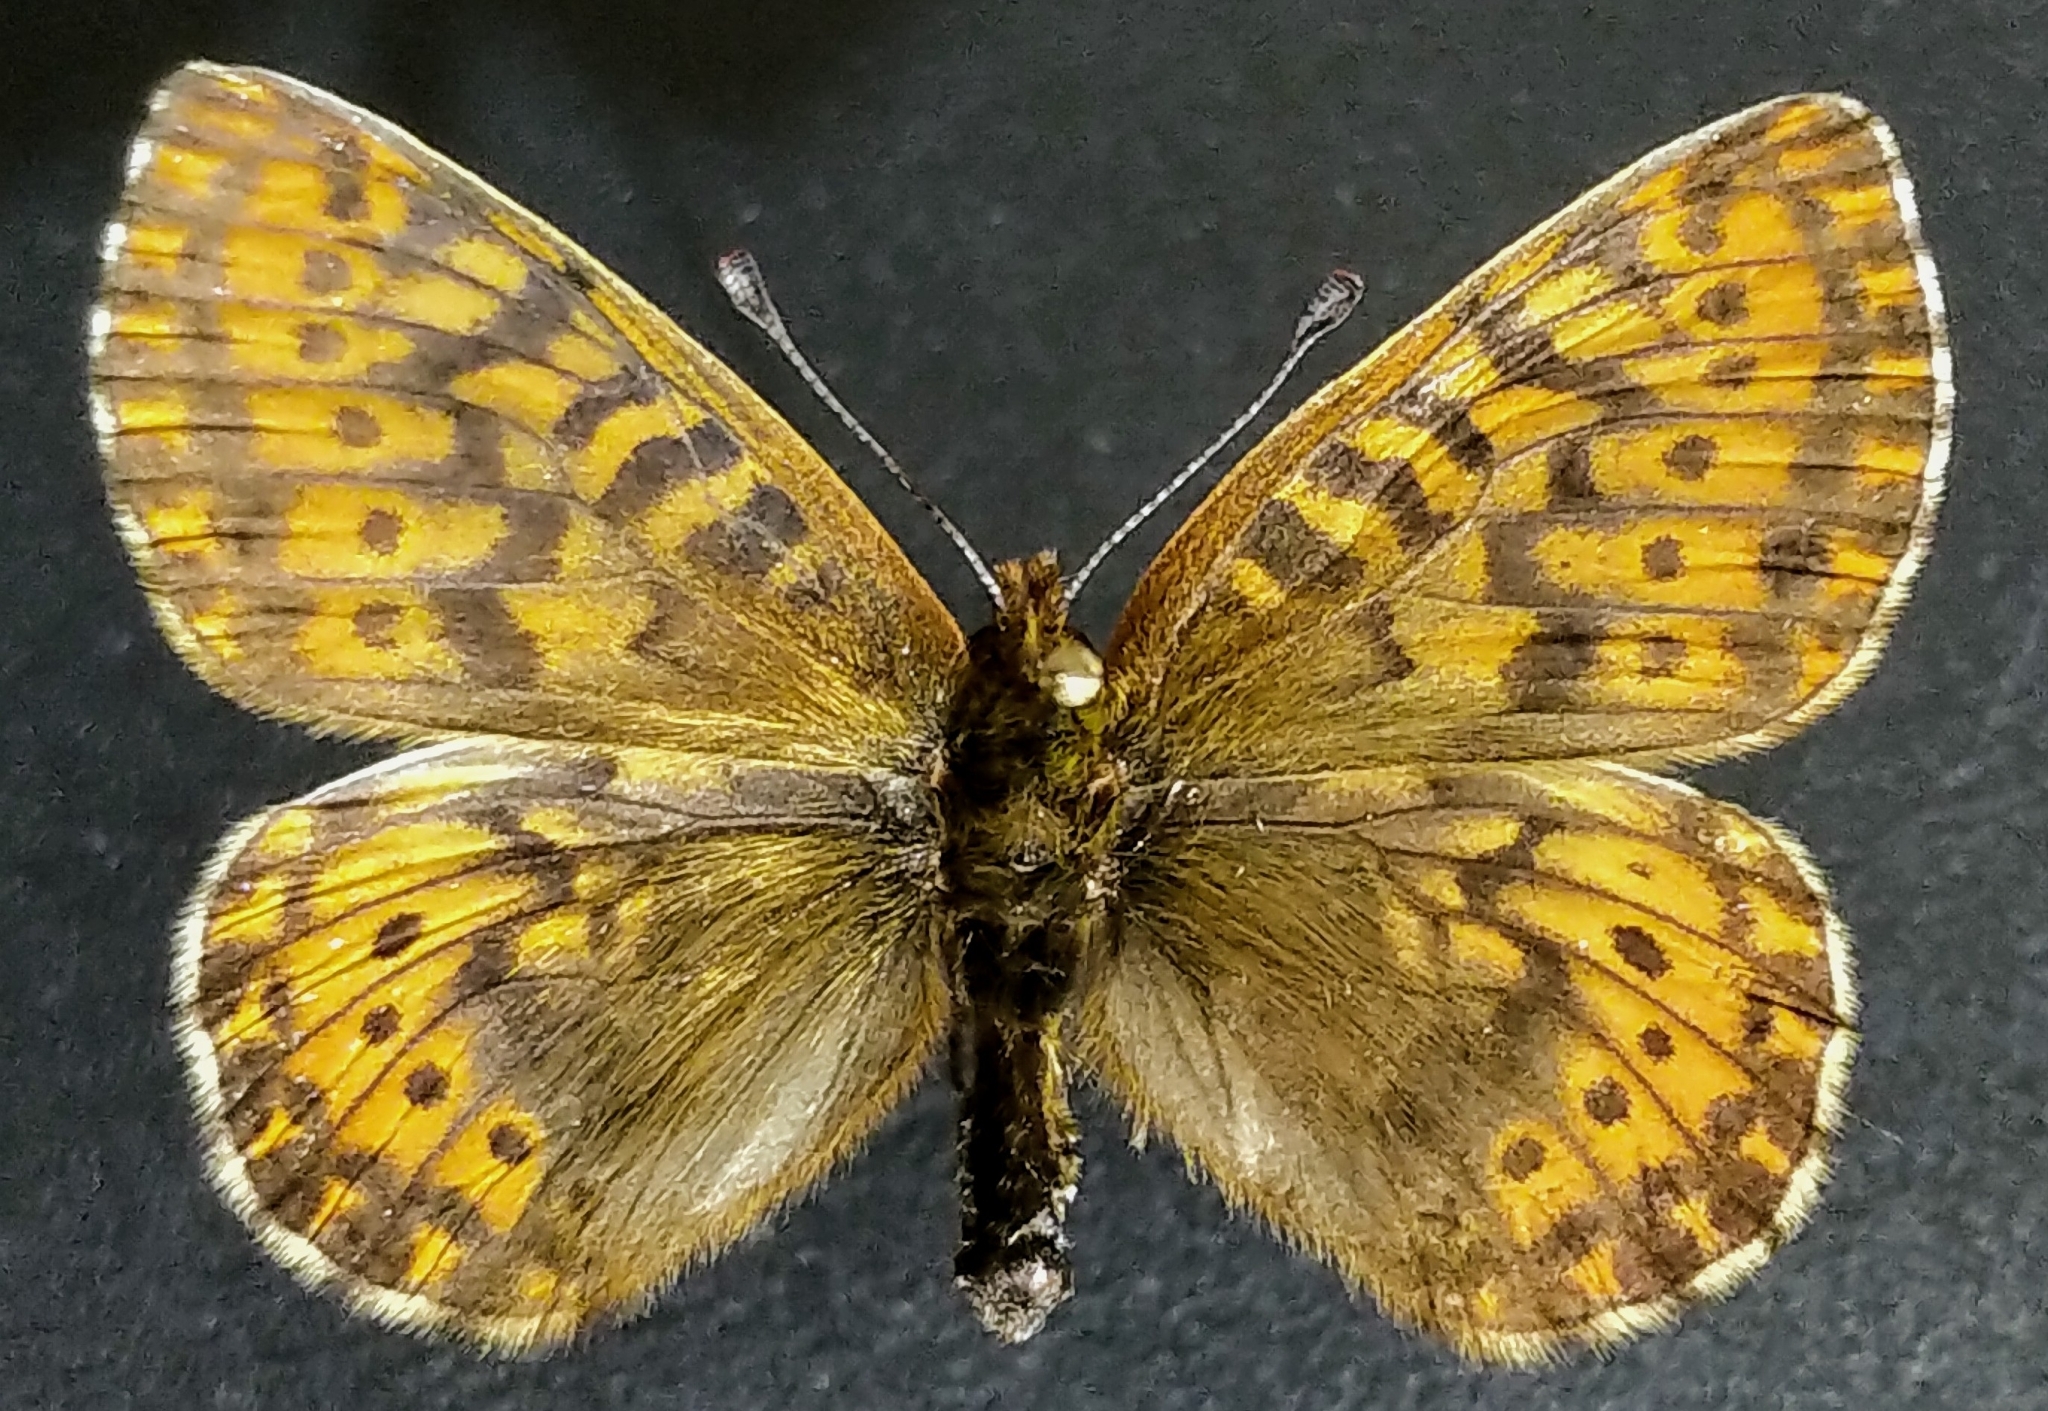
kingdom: Animalia
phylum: Arthropoda
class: Insecta
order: Lepidoptera
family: Nymphalidae
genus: Clossiana
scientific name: Clossiana polaris
